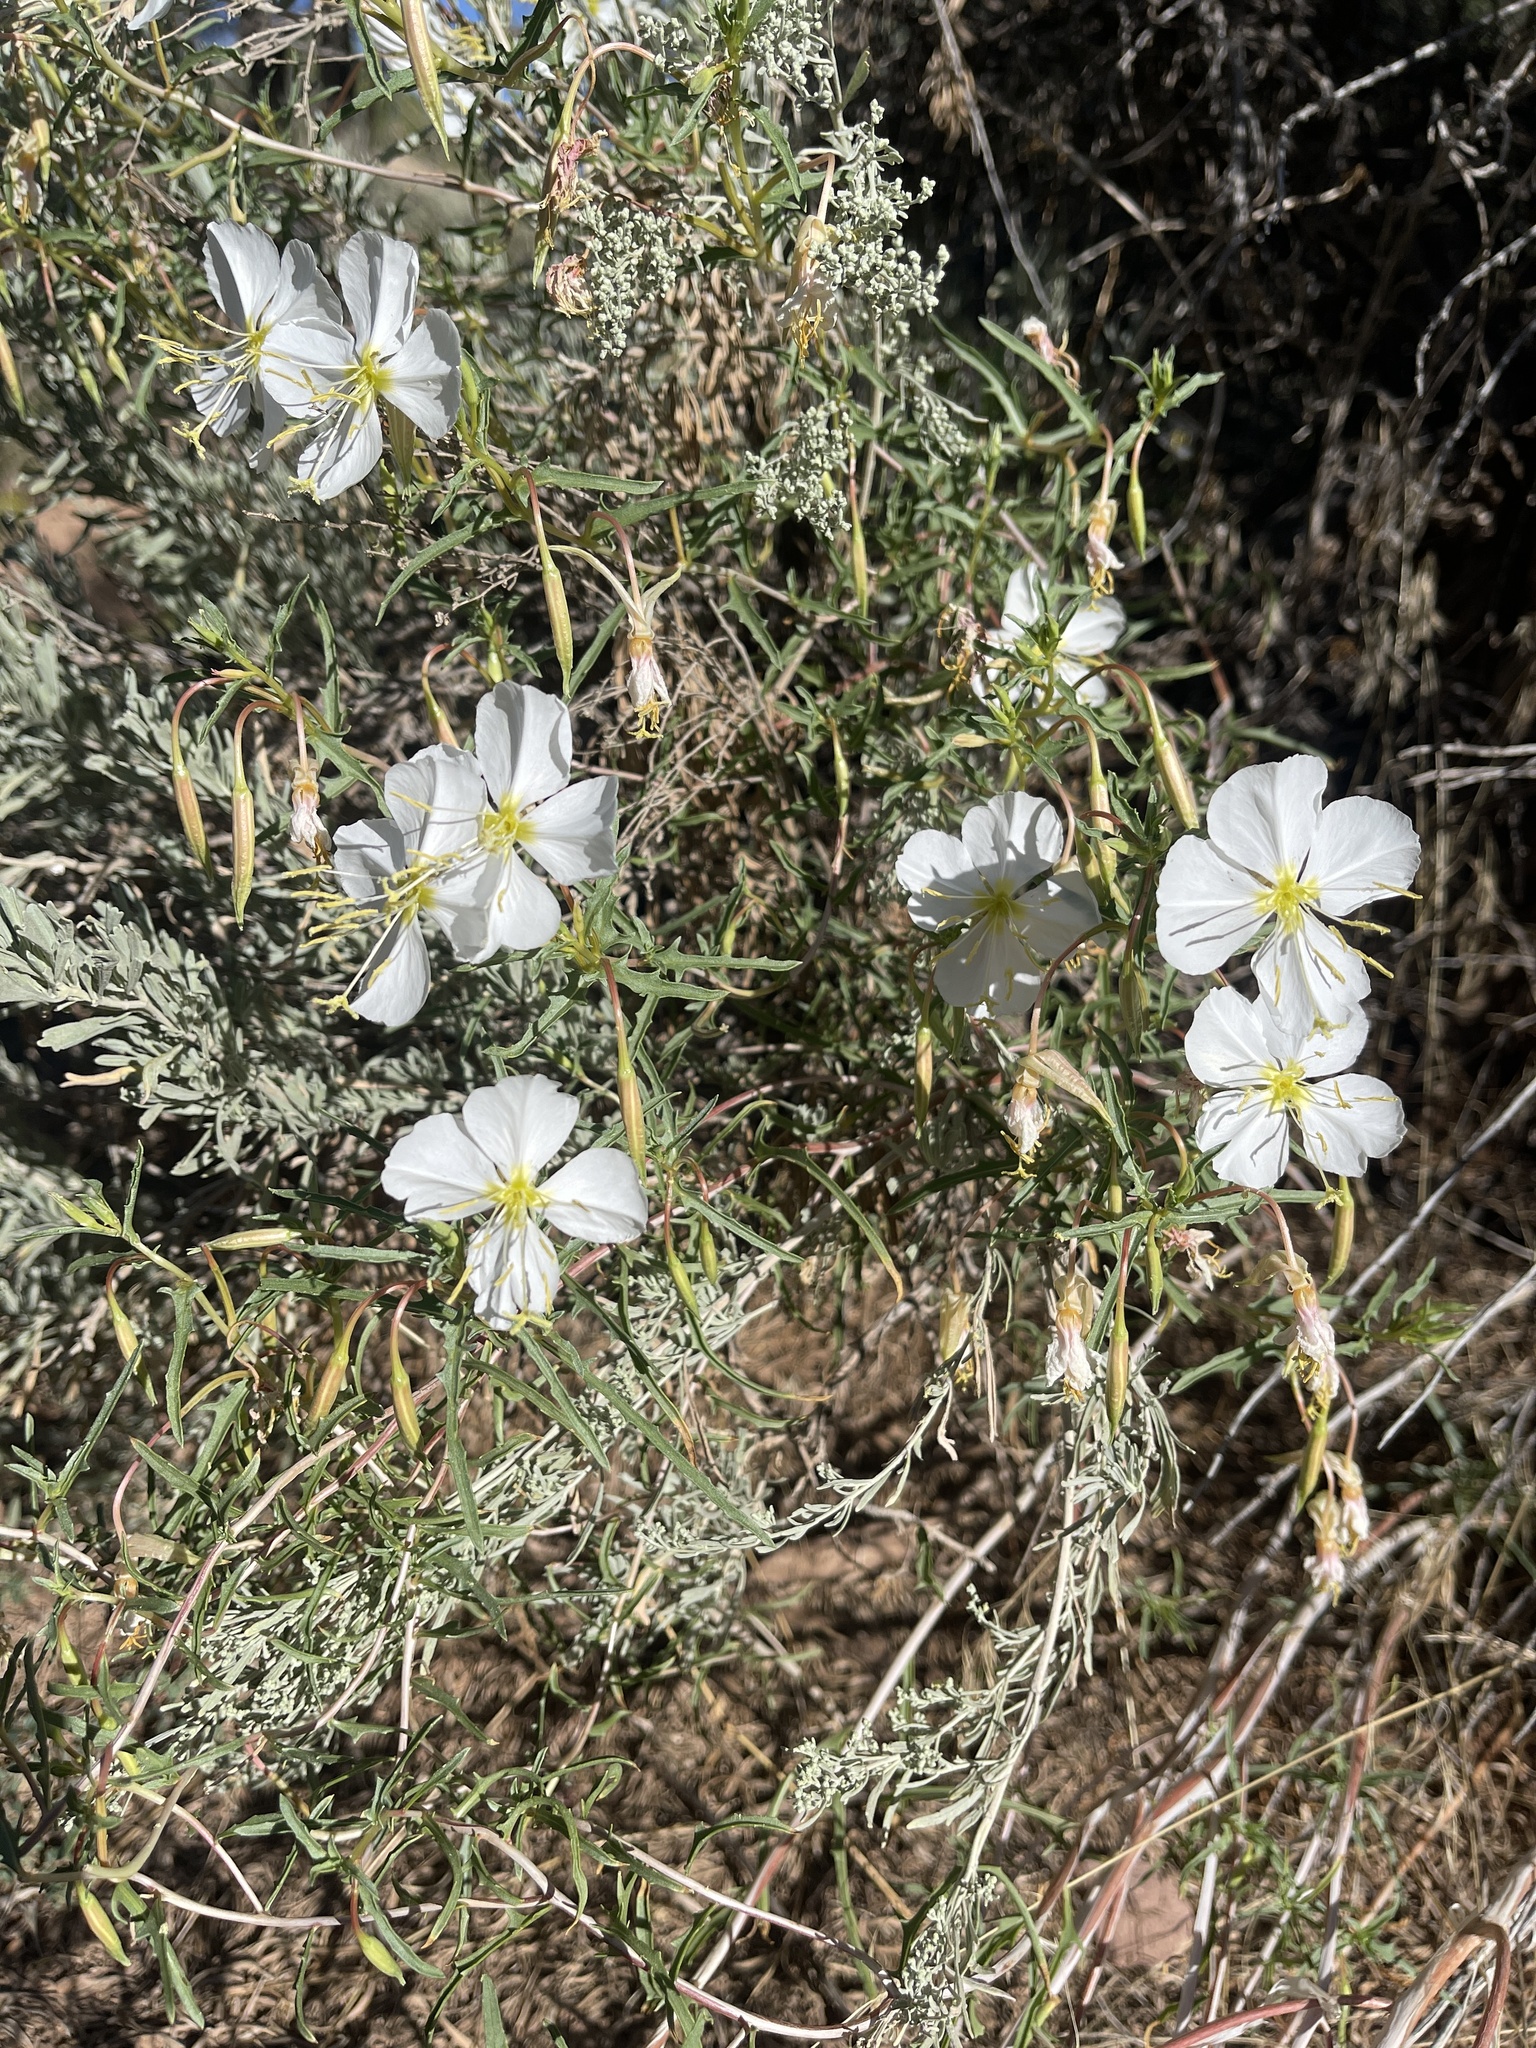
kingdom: Plantae
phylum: Tracheophyta
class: Magnoliopsida
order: Myrtales
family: Onagraceae
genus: Oenothera
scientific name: Oenothera pallida
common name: Pale evening-primrose
